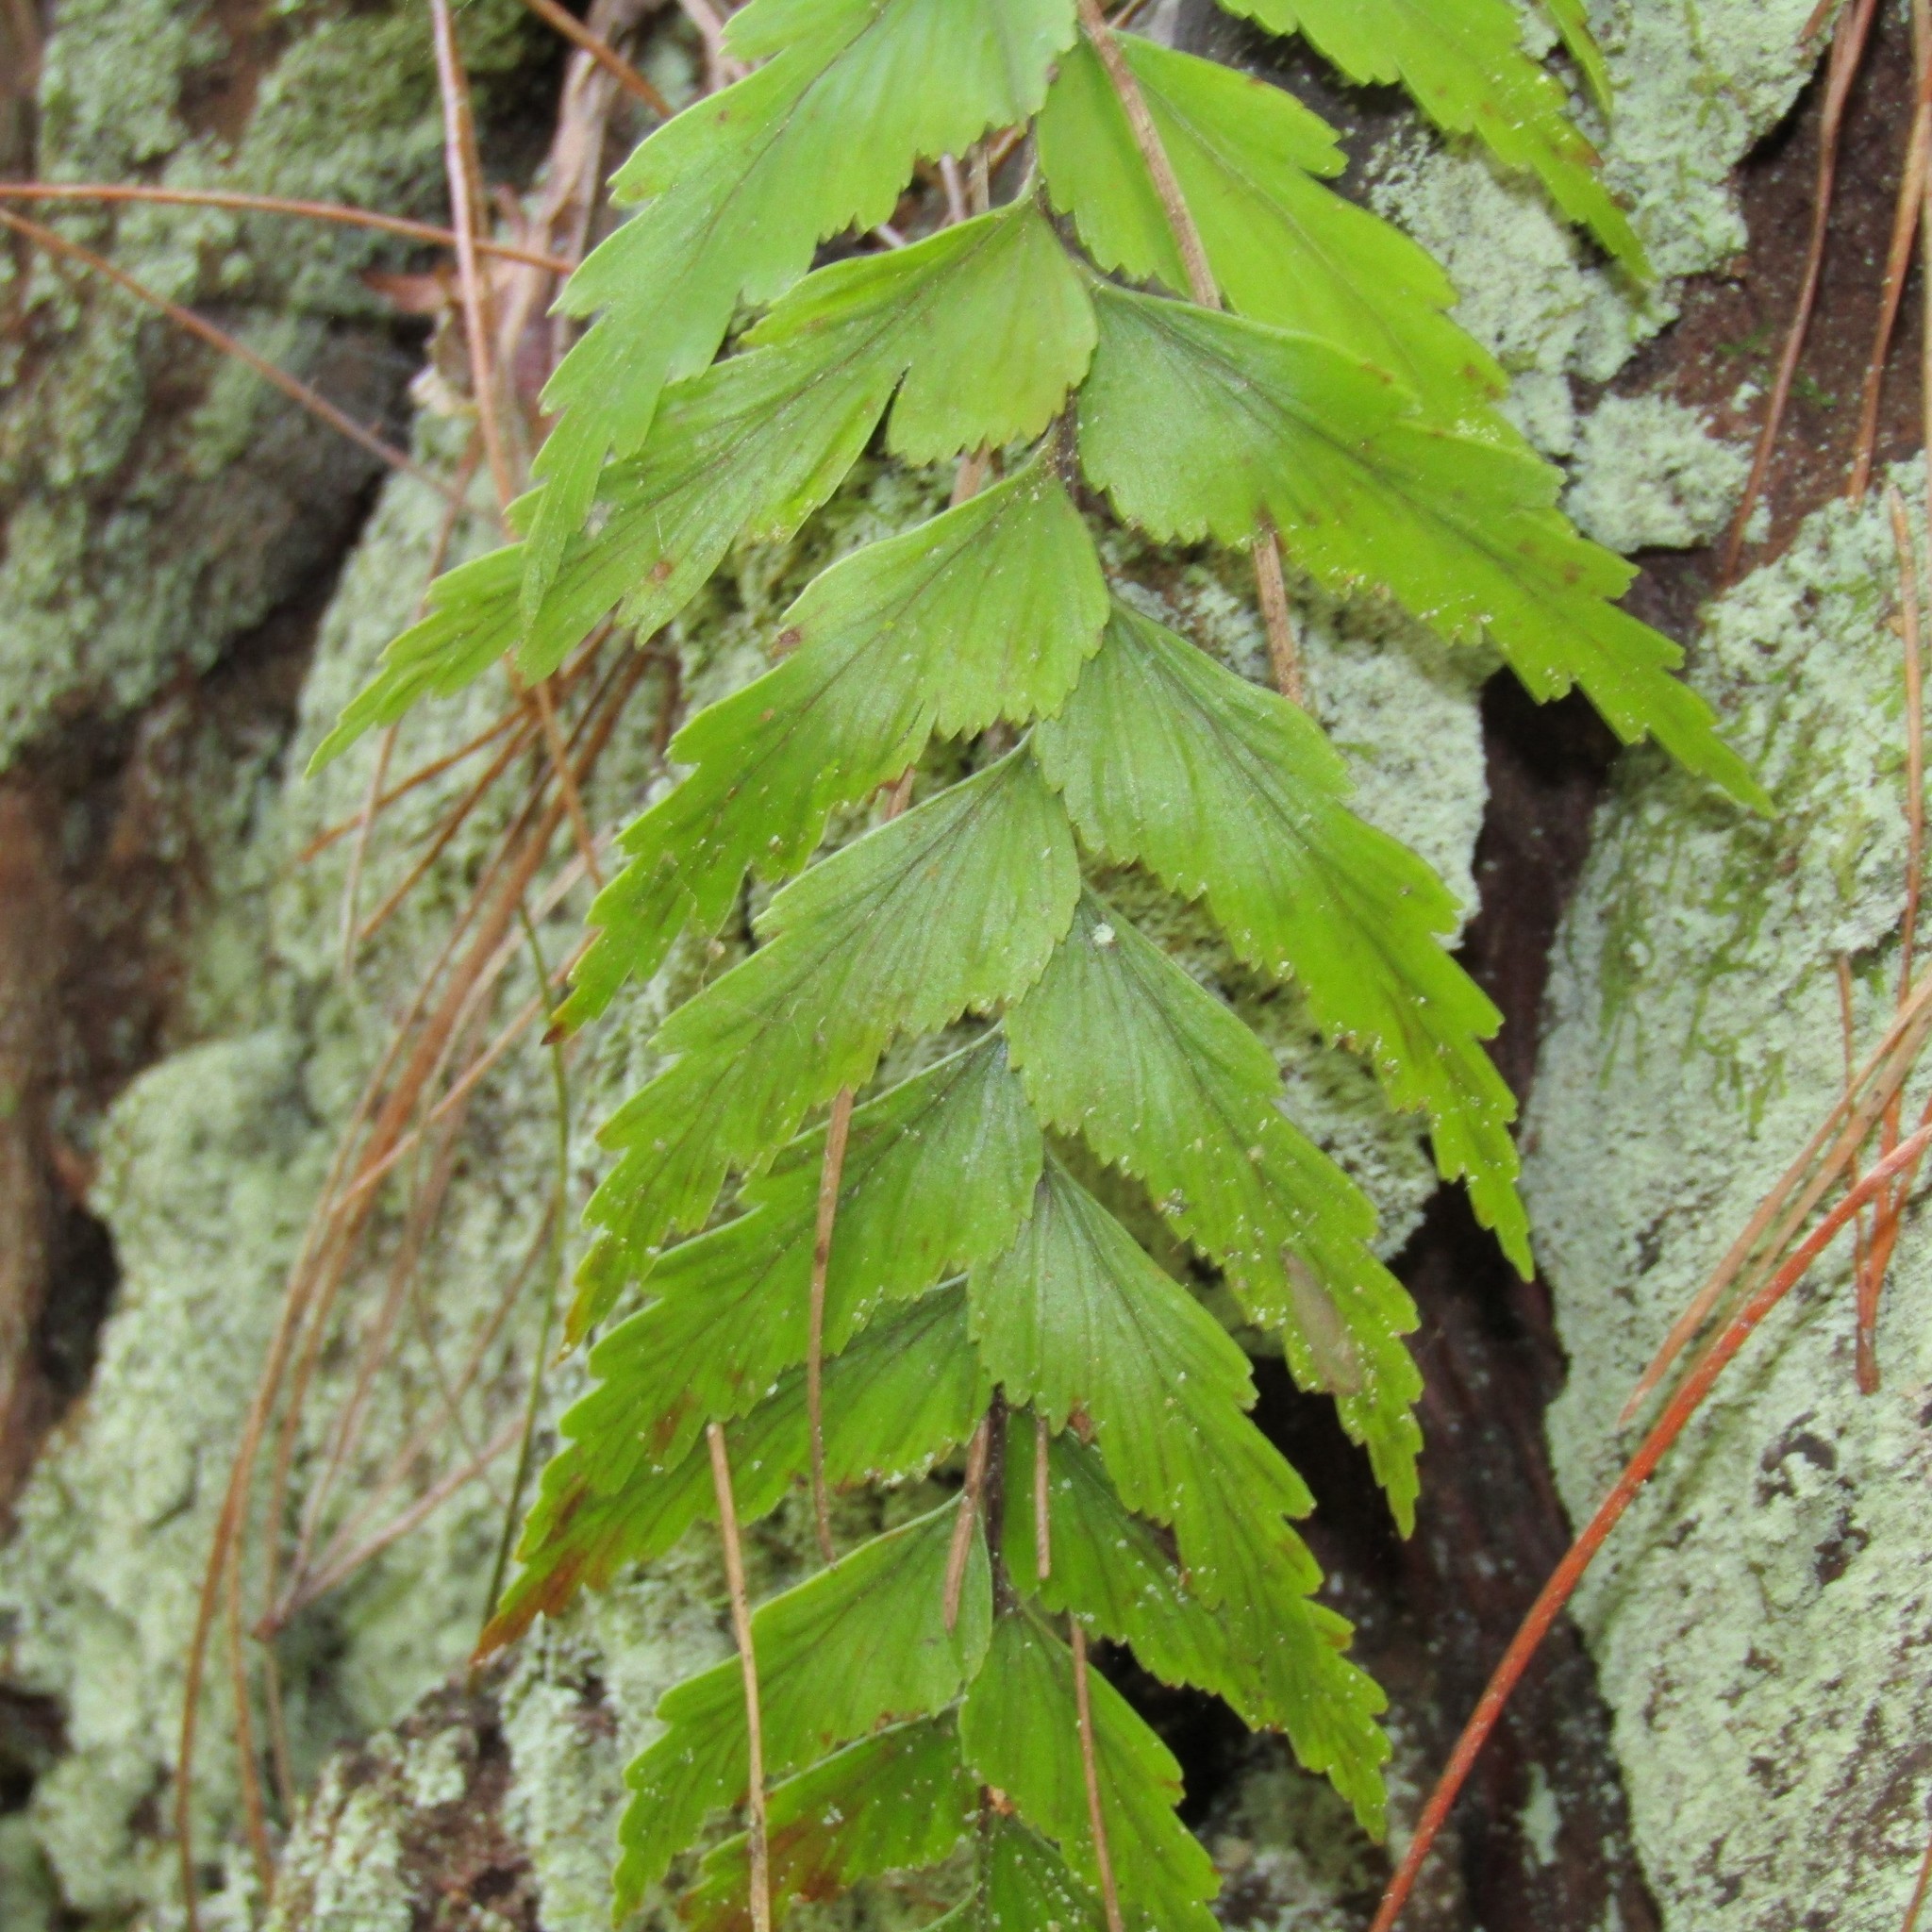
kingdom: Plantae
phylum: Tracheophyta
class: Polypodiopsida
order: Polypodiales
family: Aspleniaceae
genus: Asplenium
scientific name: Asplenium polyodon
